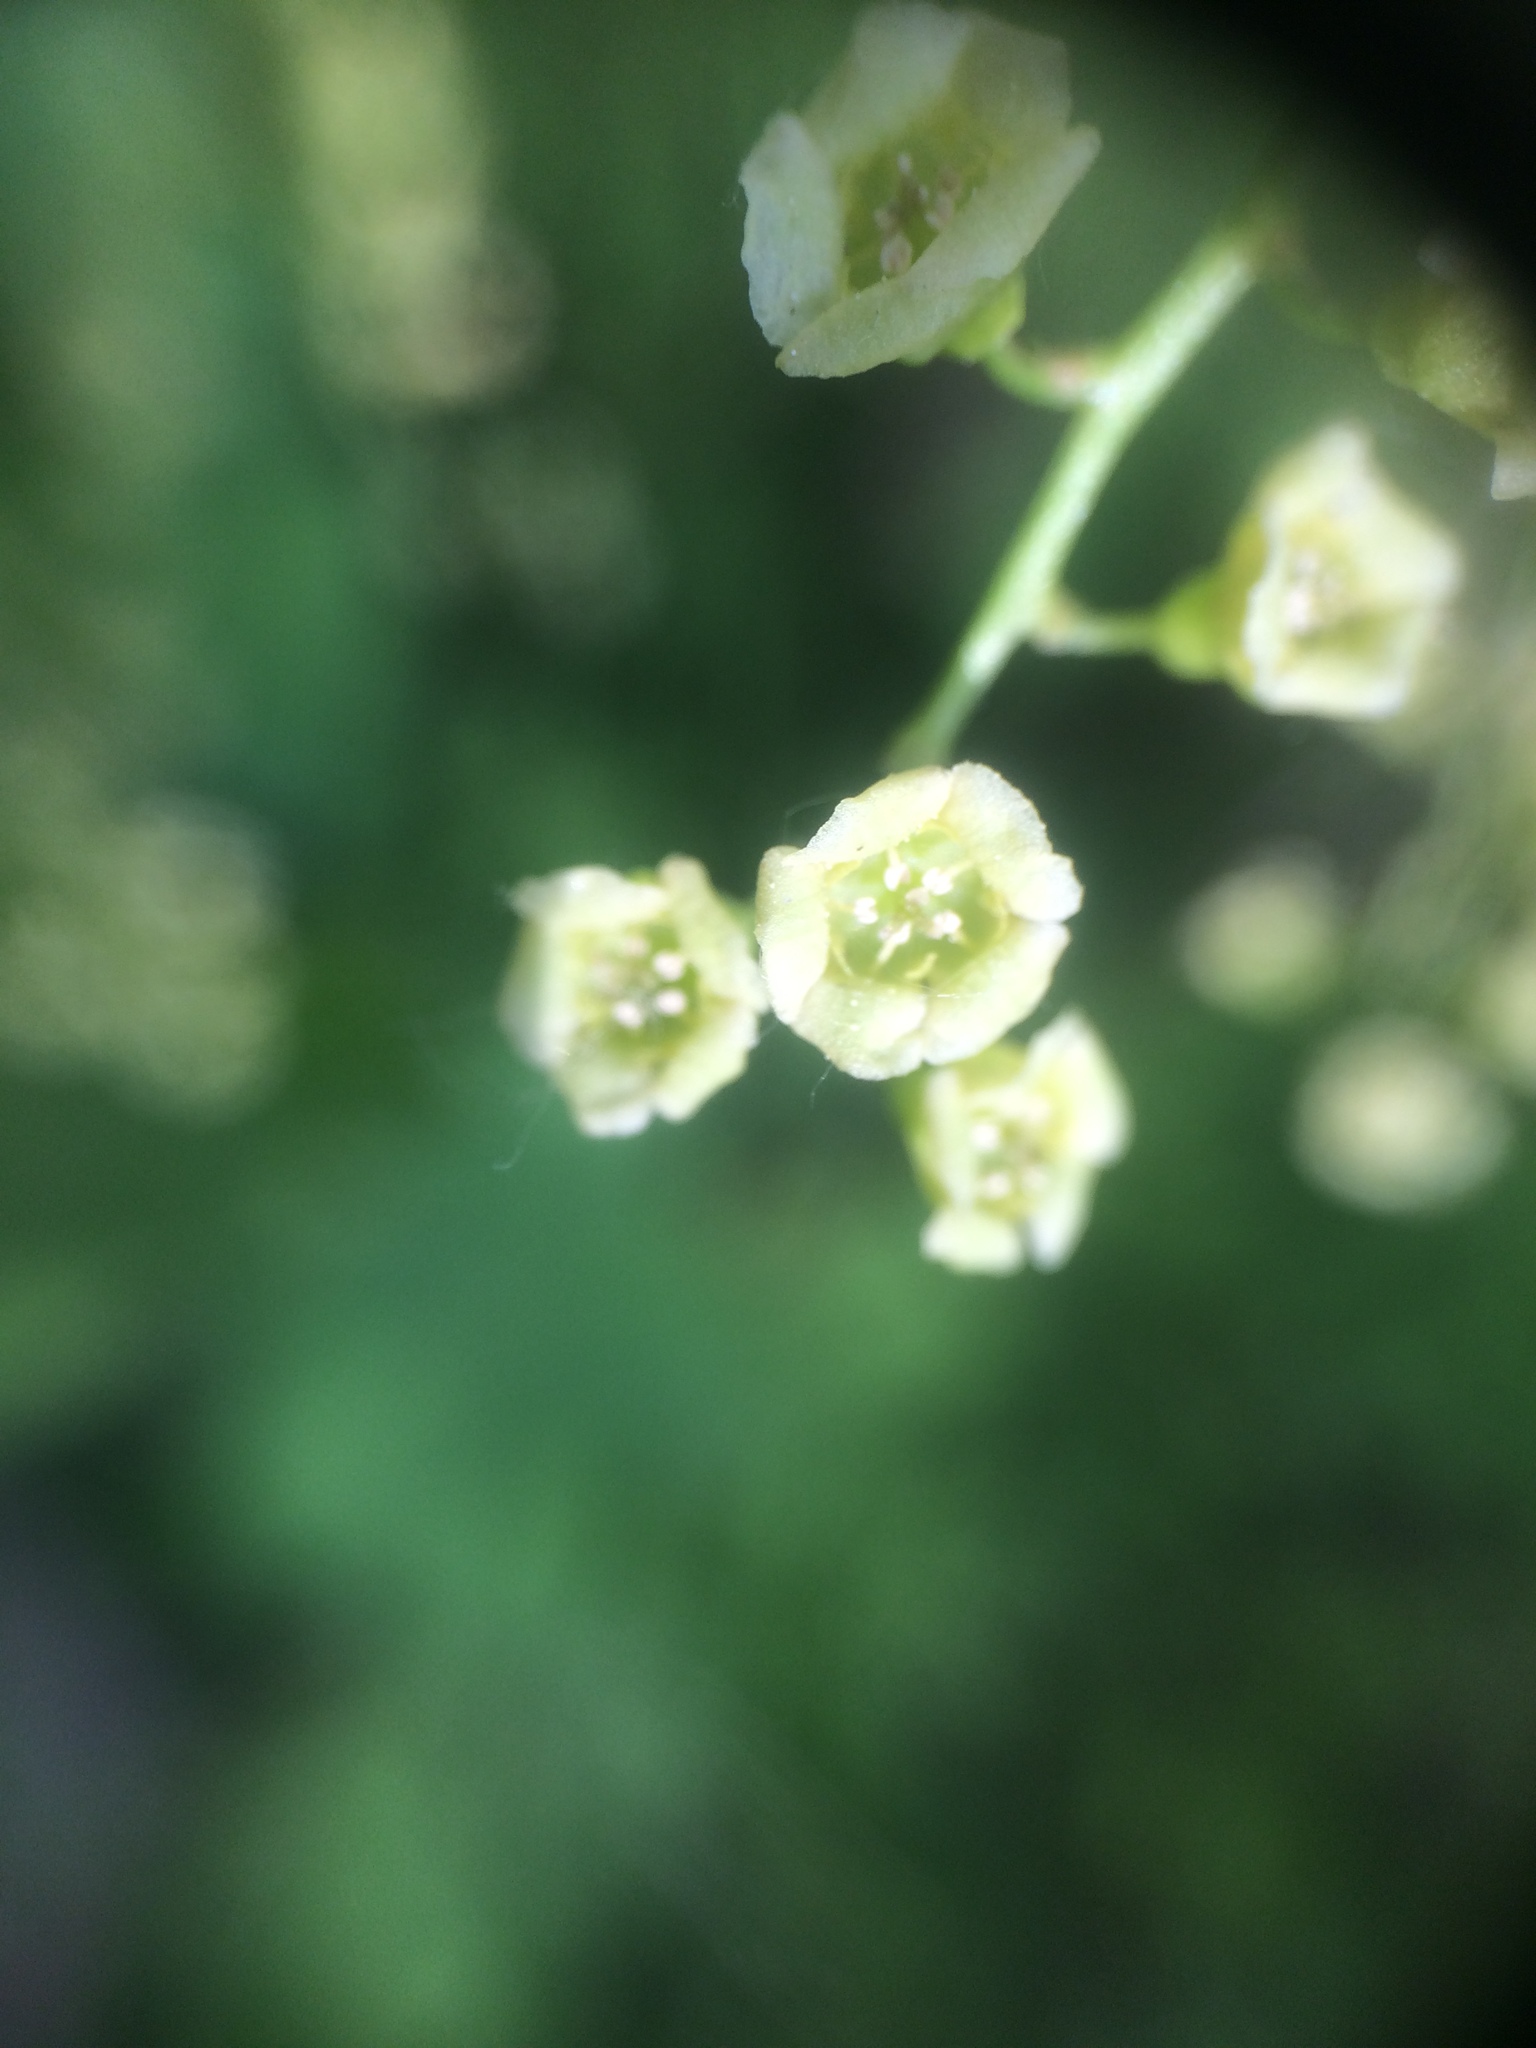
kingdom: Plantae
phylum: Tracheophyta
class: Magnoliopsida
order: Saxifragales
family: Grossulariaceae
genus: Ribes
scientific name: Ribes rubrum
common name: Red currant
